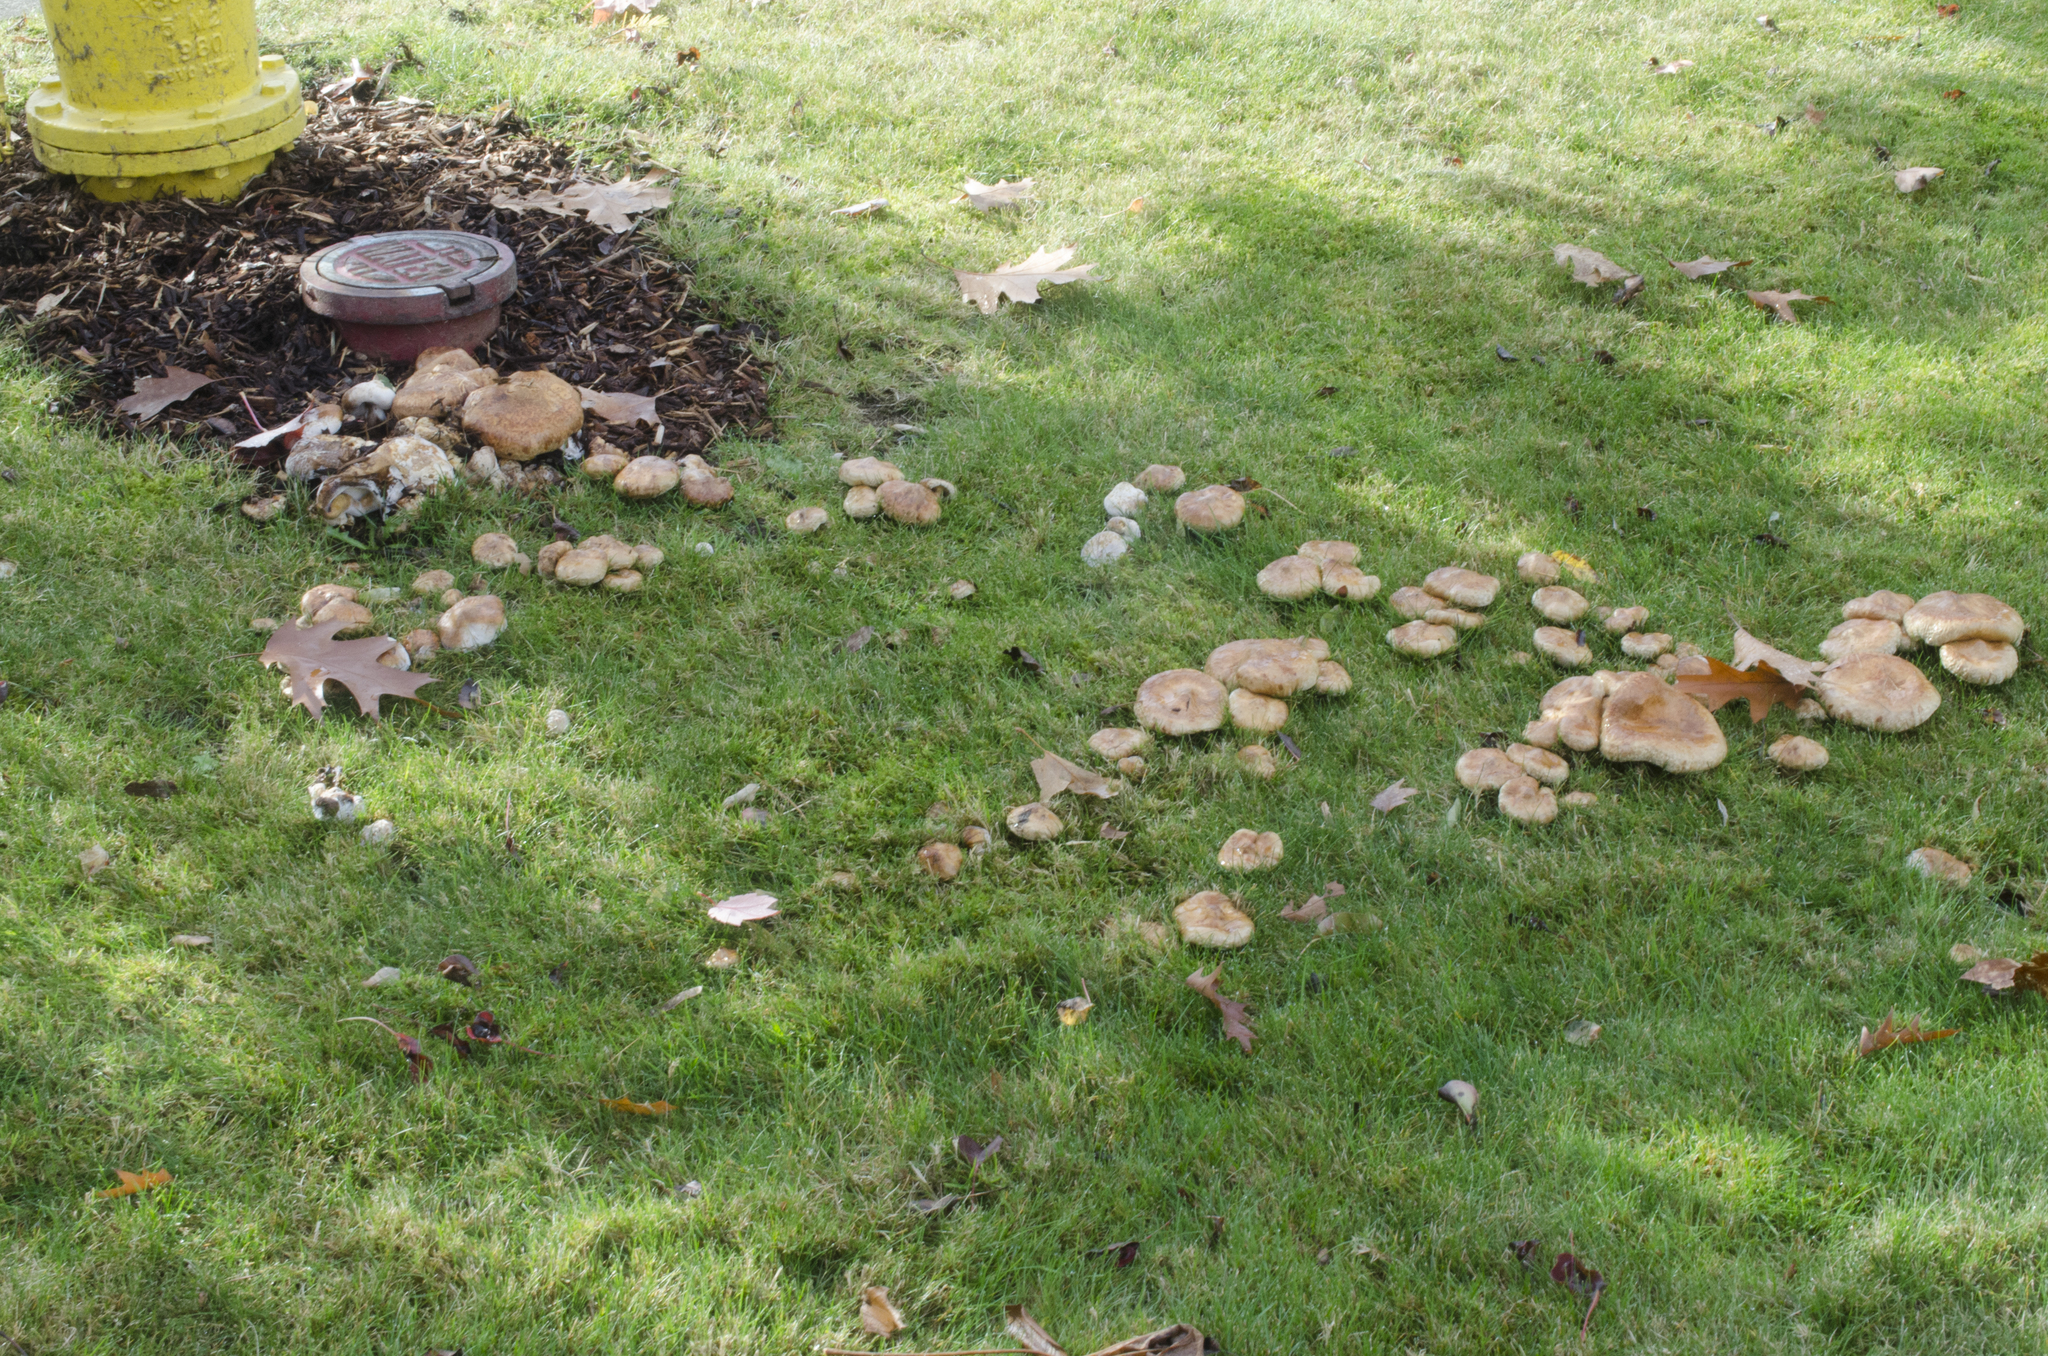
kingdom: Fungi
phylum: Basidiomycota
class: Agaricomycetes
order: Boletales
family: Paxillaceae
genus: Paxillus
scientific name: Paxillus cuprinus
